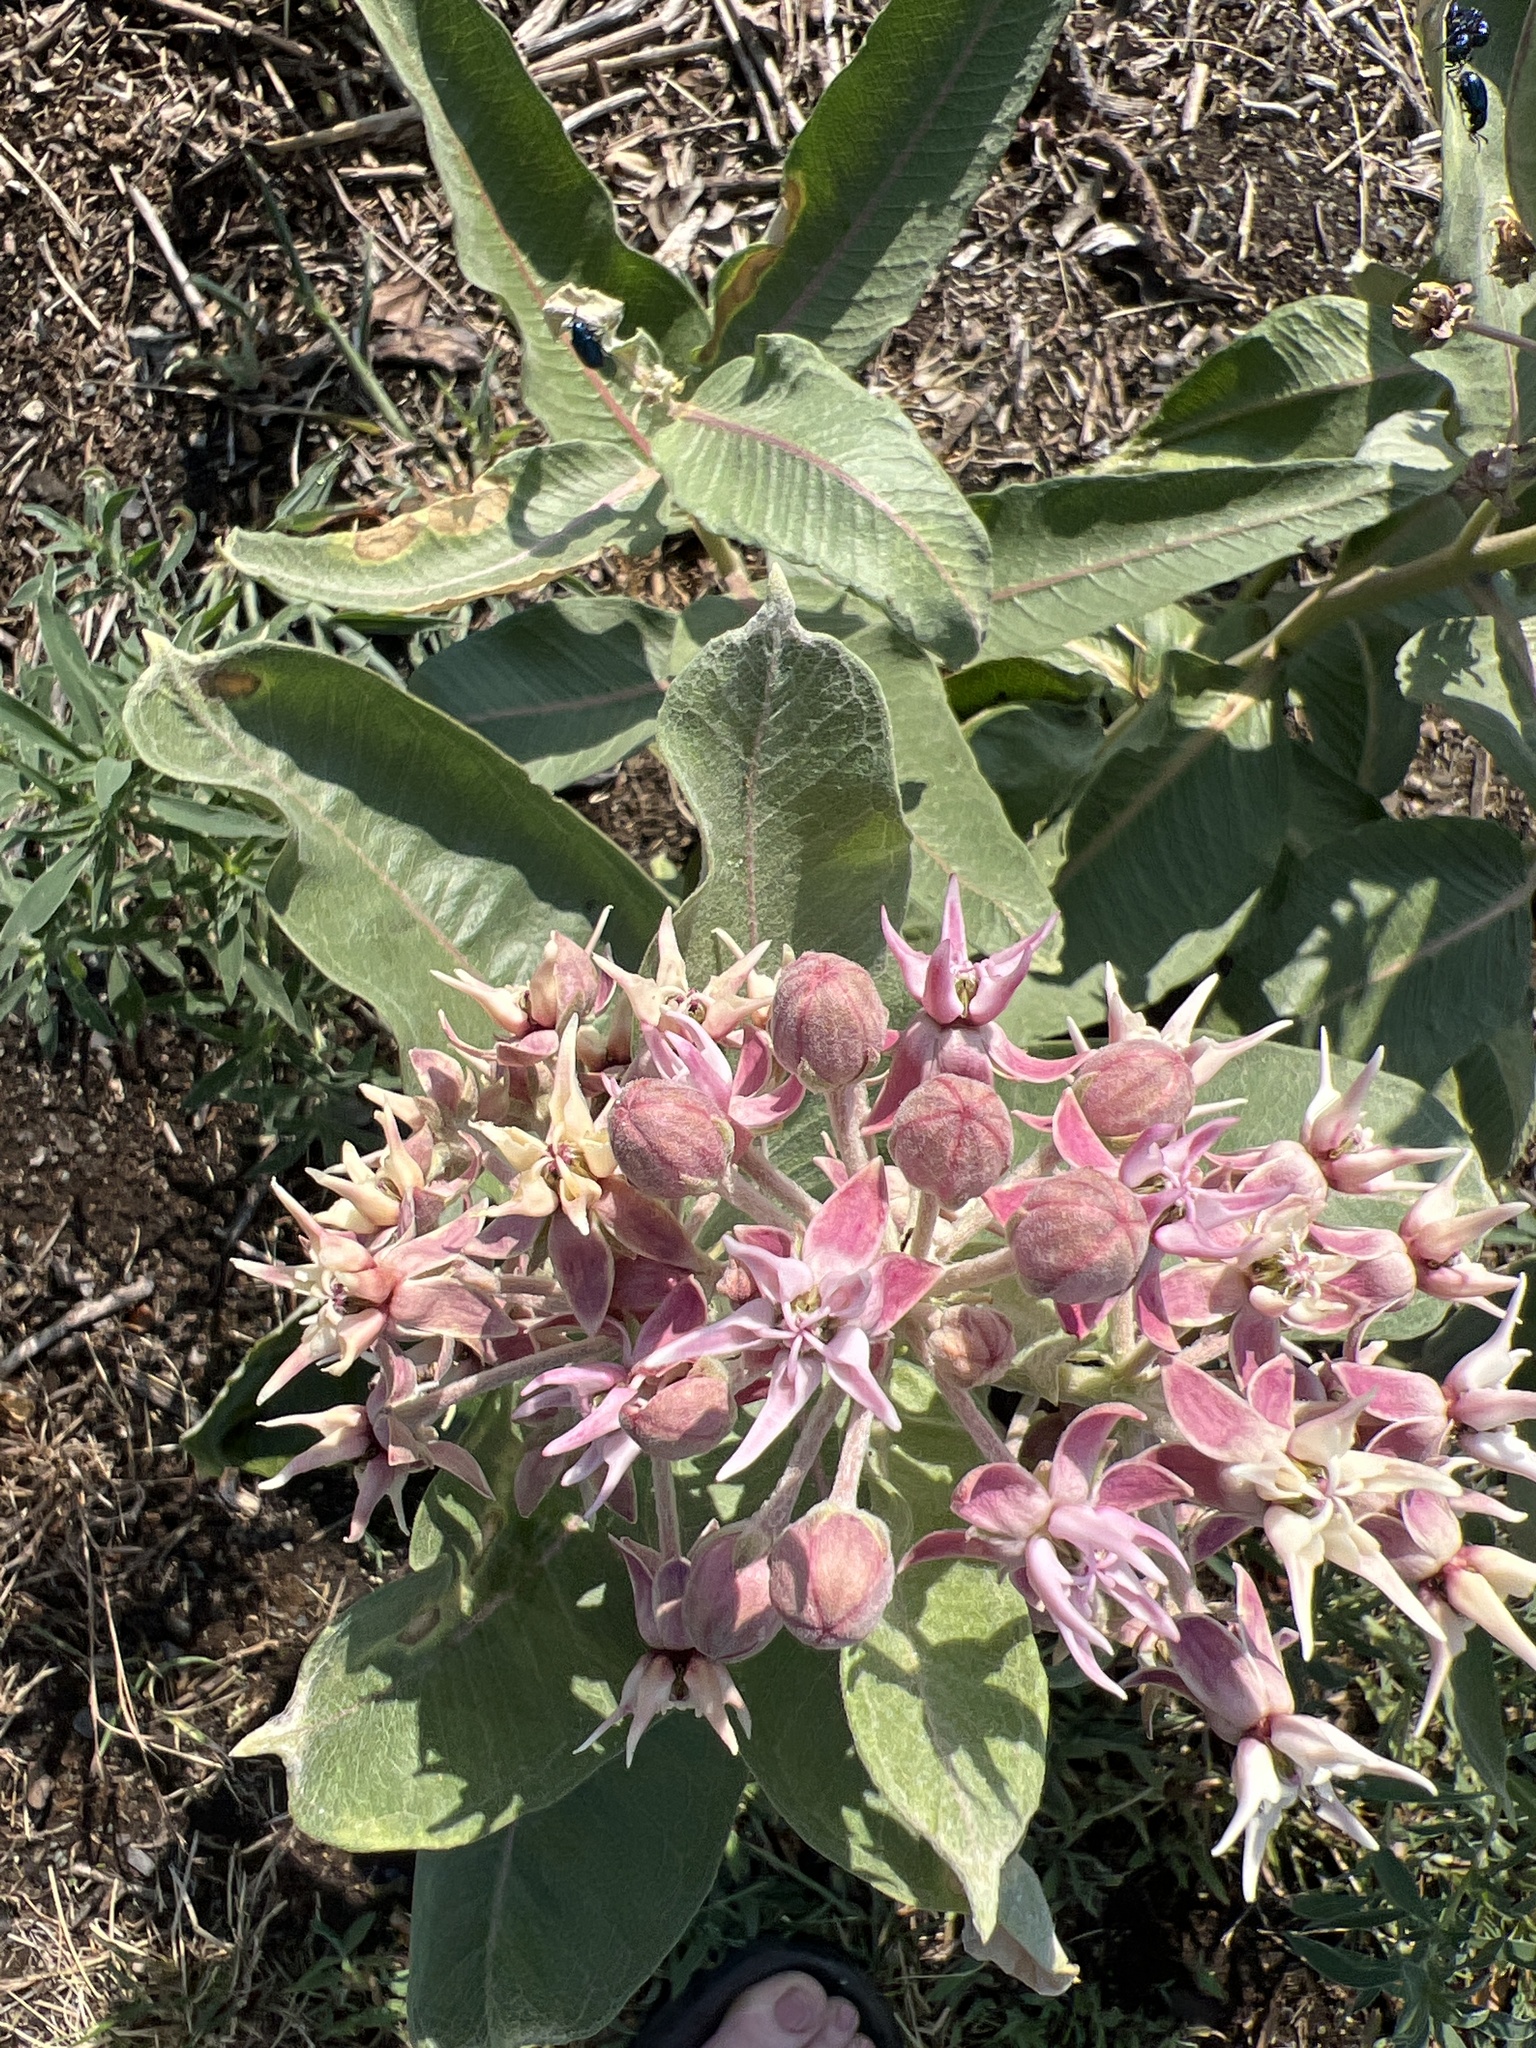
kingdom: Plantae
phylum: Tracheophyta
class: Magnoliopsida
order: Gentianales
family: Apocynaceae
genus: Asclepias
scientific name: Asclepias speciosa
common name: Showy milkweed
